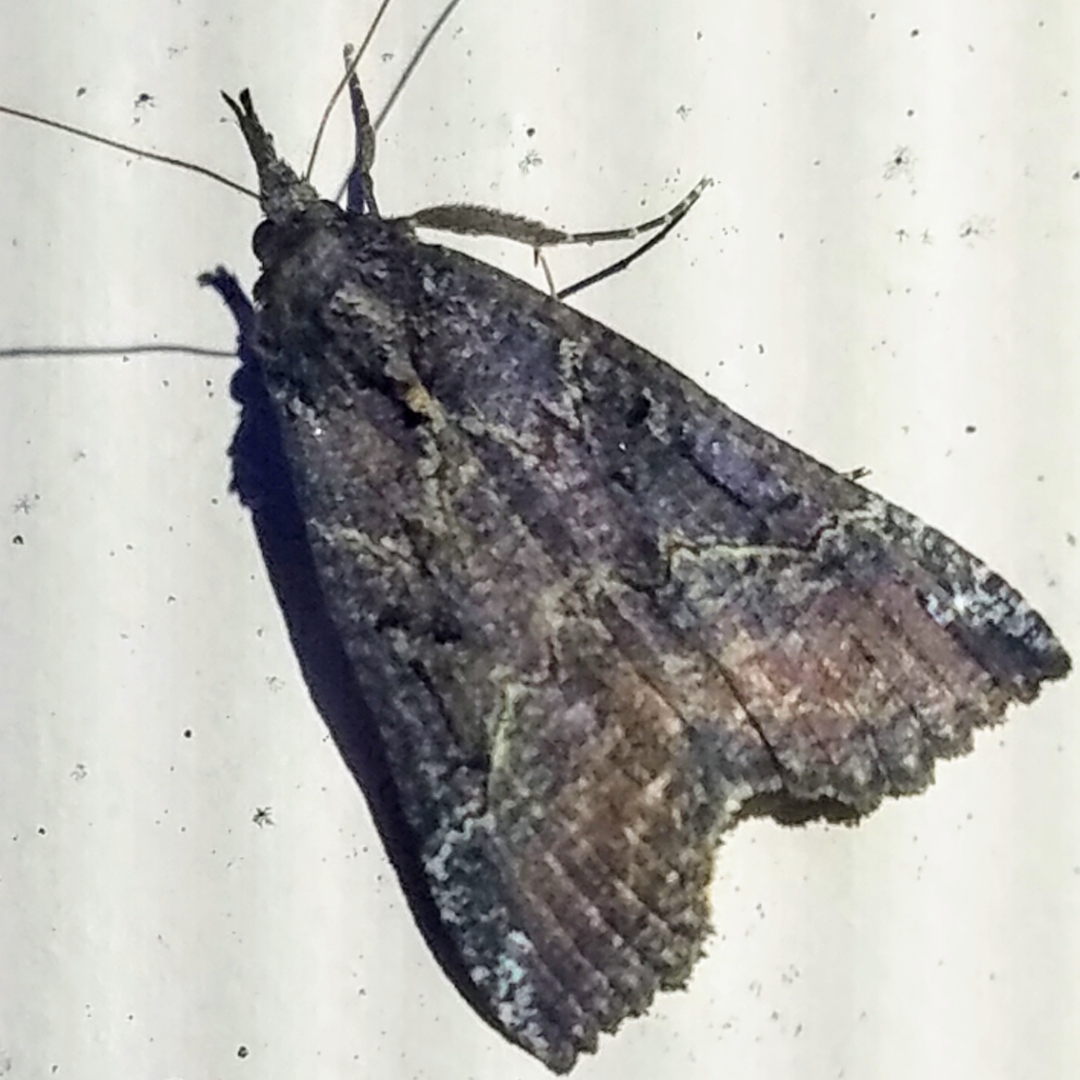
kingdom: Animalia
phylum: Arthropoda
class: Insecta
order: Lepidoptera
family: Erebidae
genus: Hypena
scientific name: Hypena decorata
